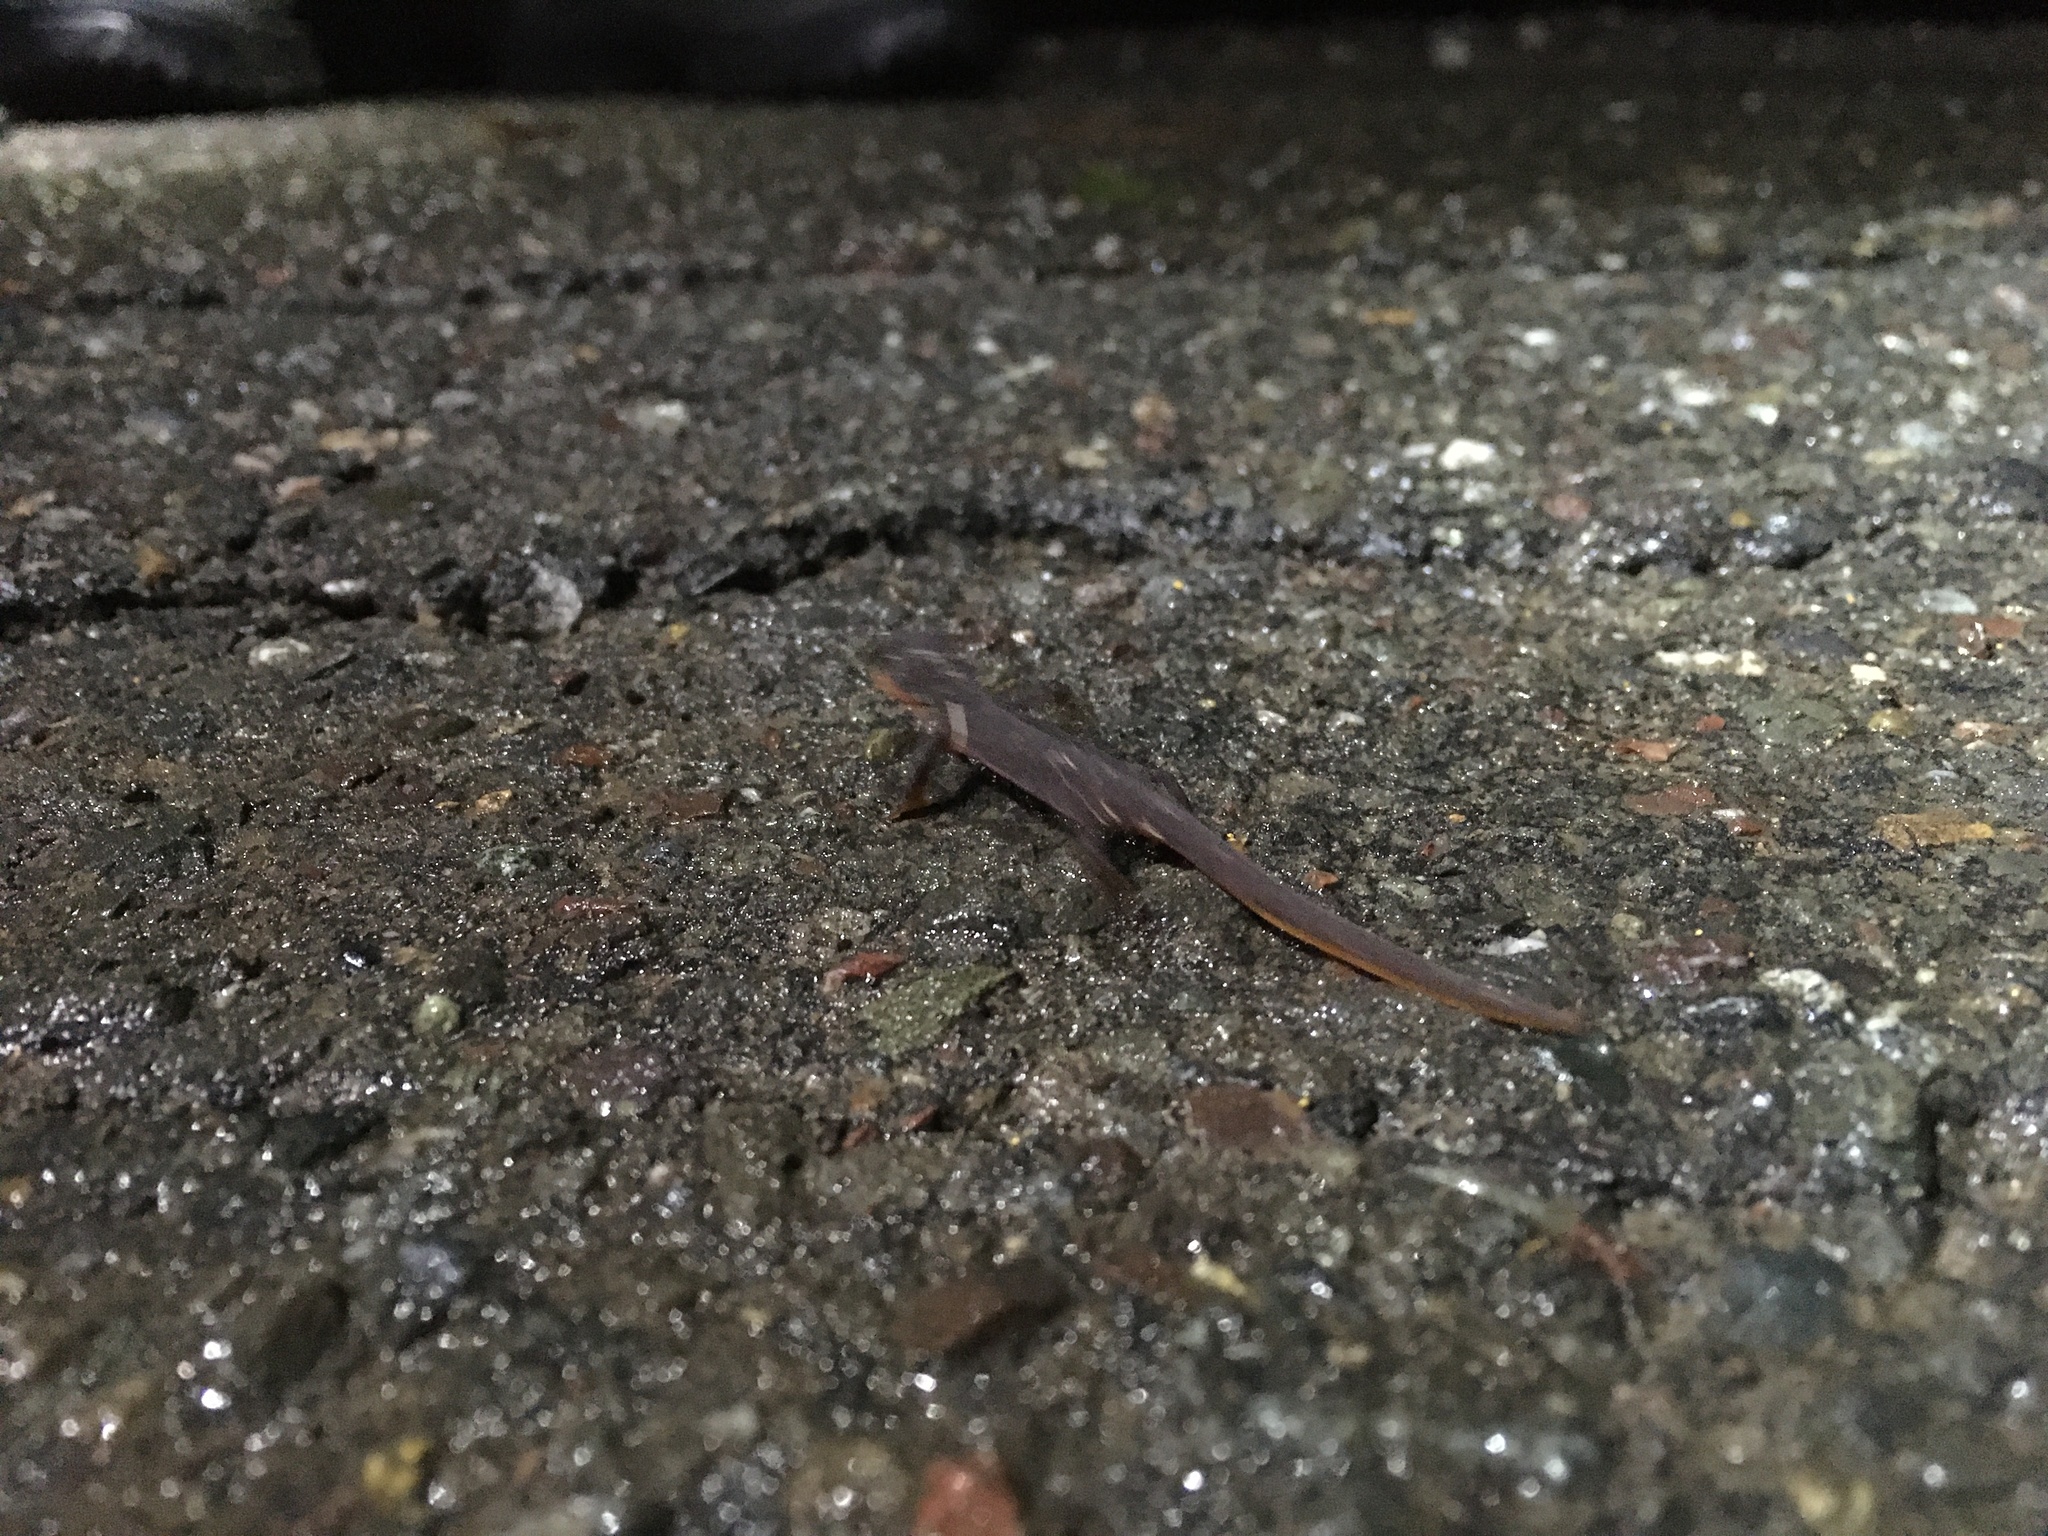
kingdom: Animalia
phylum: Chordata
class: Amphibia
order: Caudata
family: Salamandridae
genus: Taricha
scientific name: Taricha
